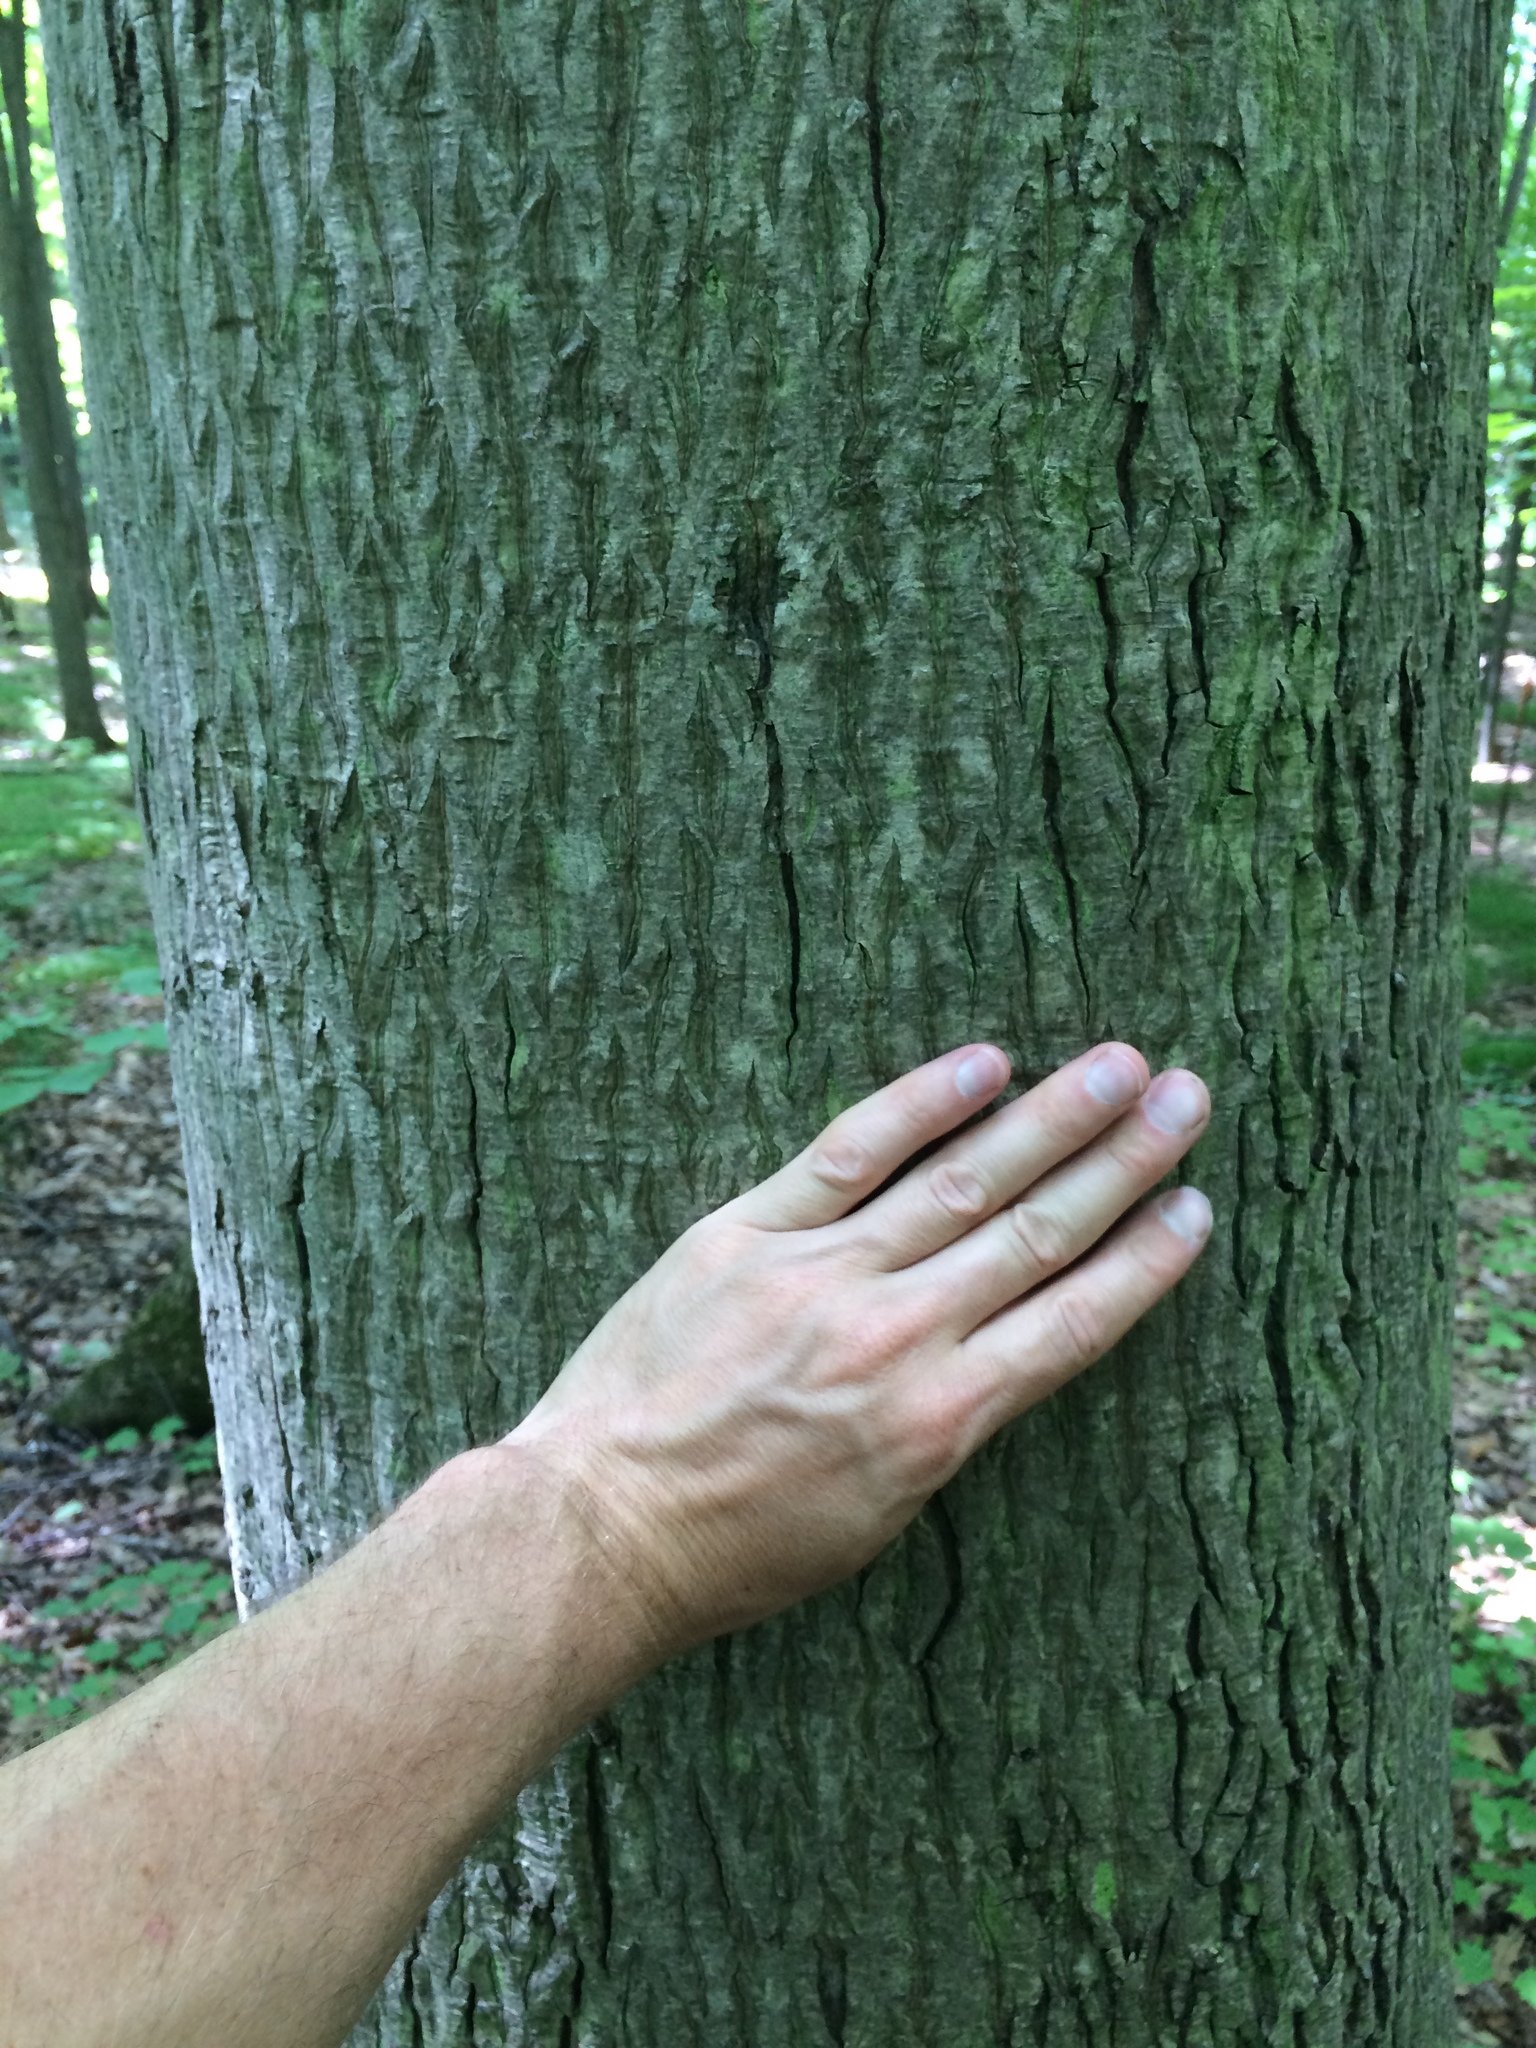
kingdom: Plantae
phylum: Tracheophyta
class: Magnoliopsida
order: Fagales
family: Juglandaceae
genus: Carya
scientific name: Carya cordiformis
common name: Bitternut hickory
